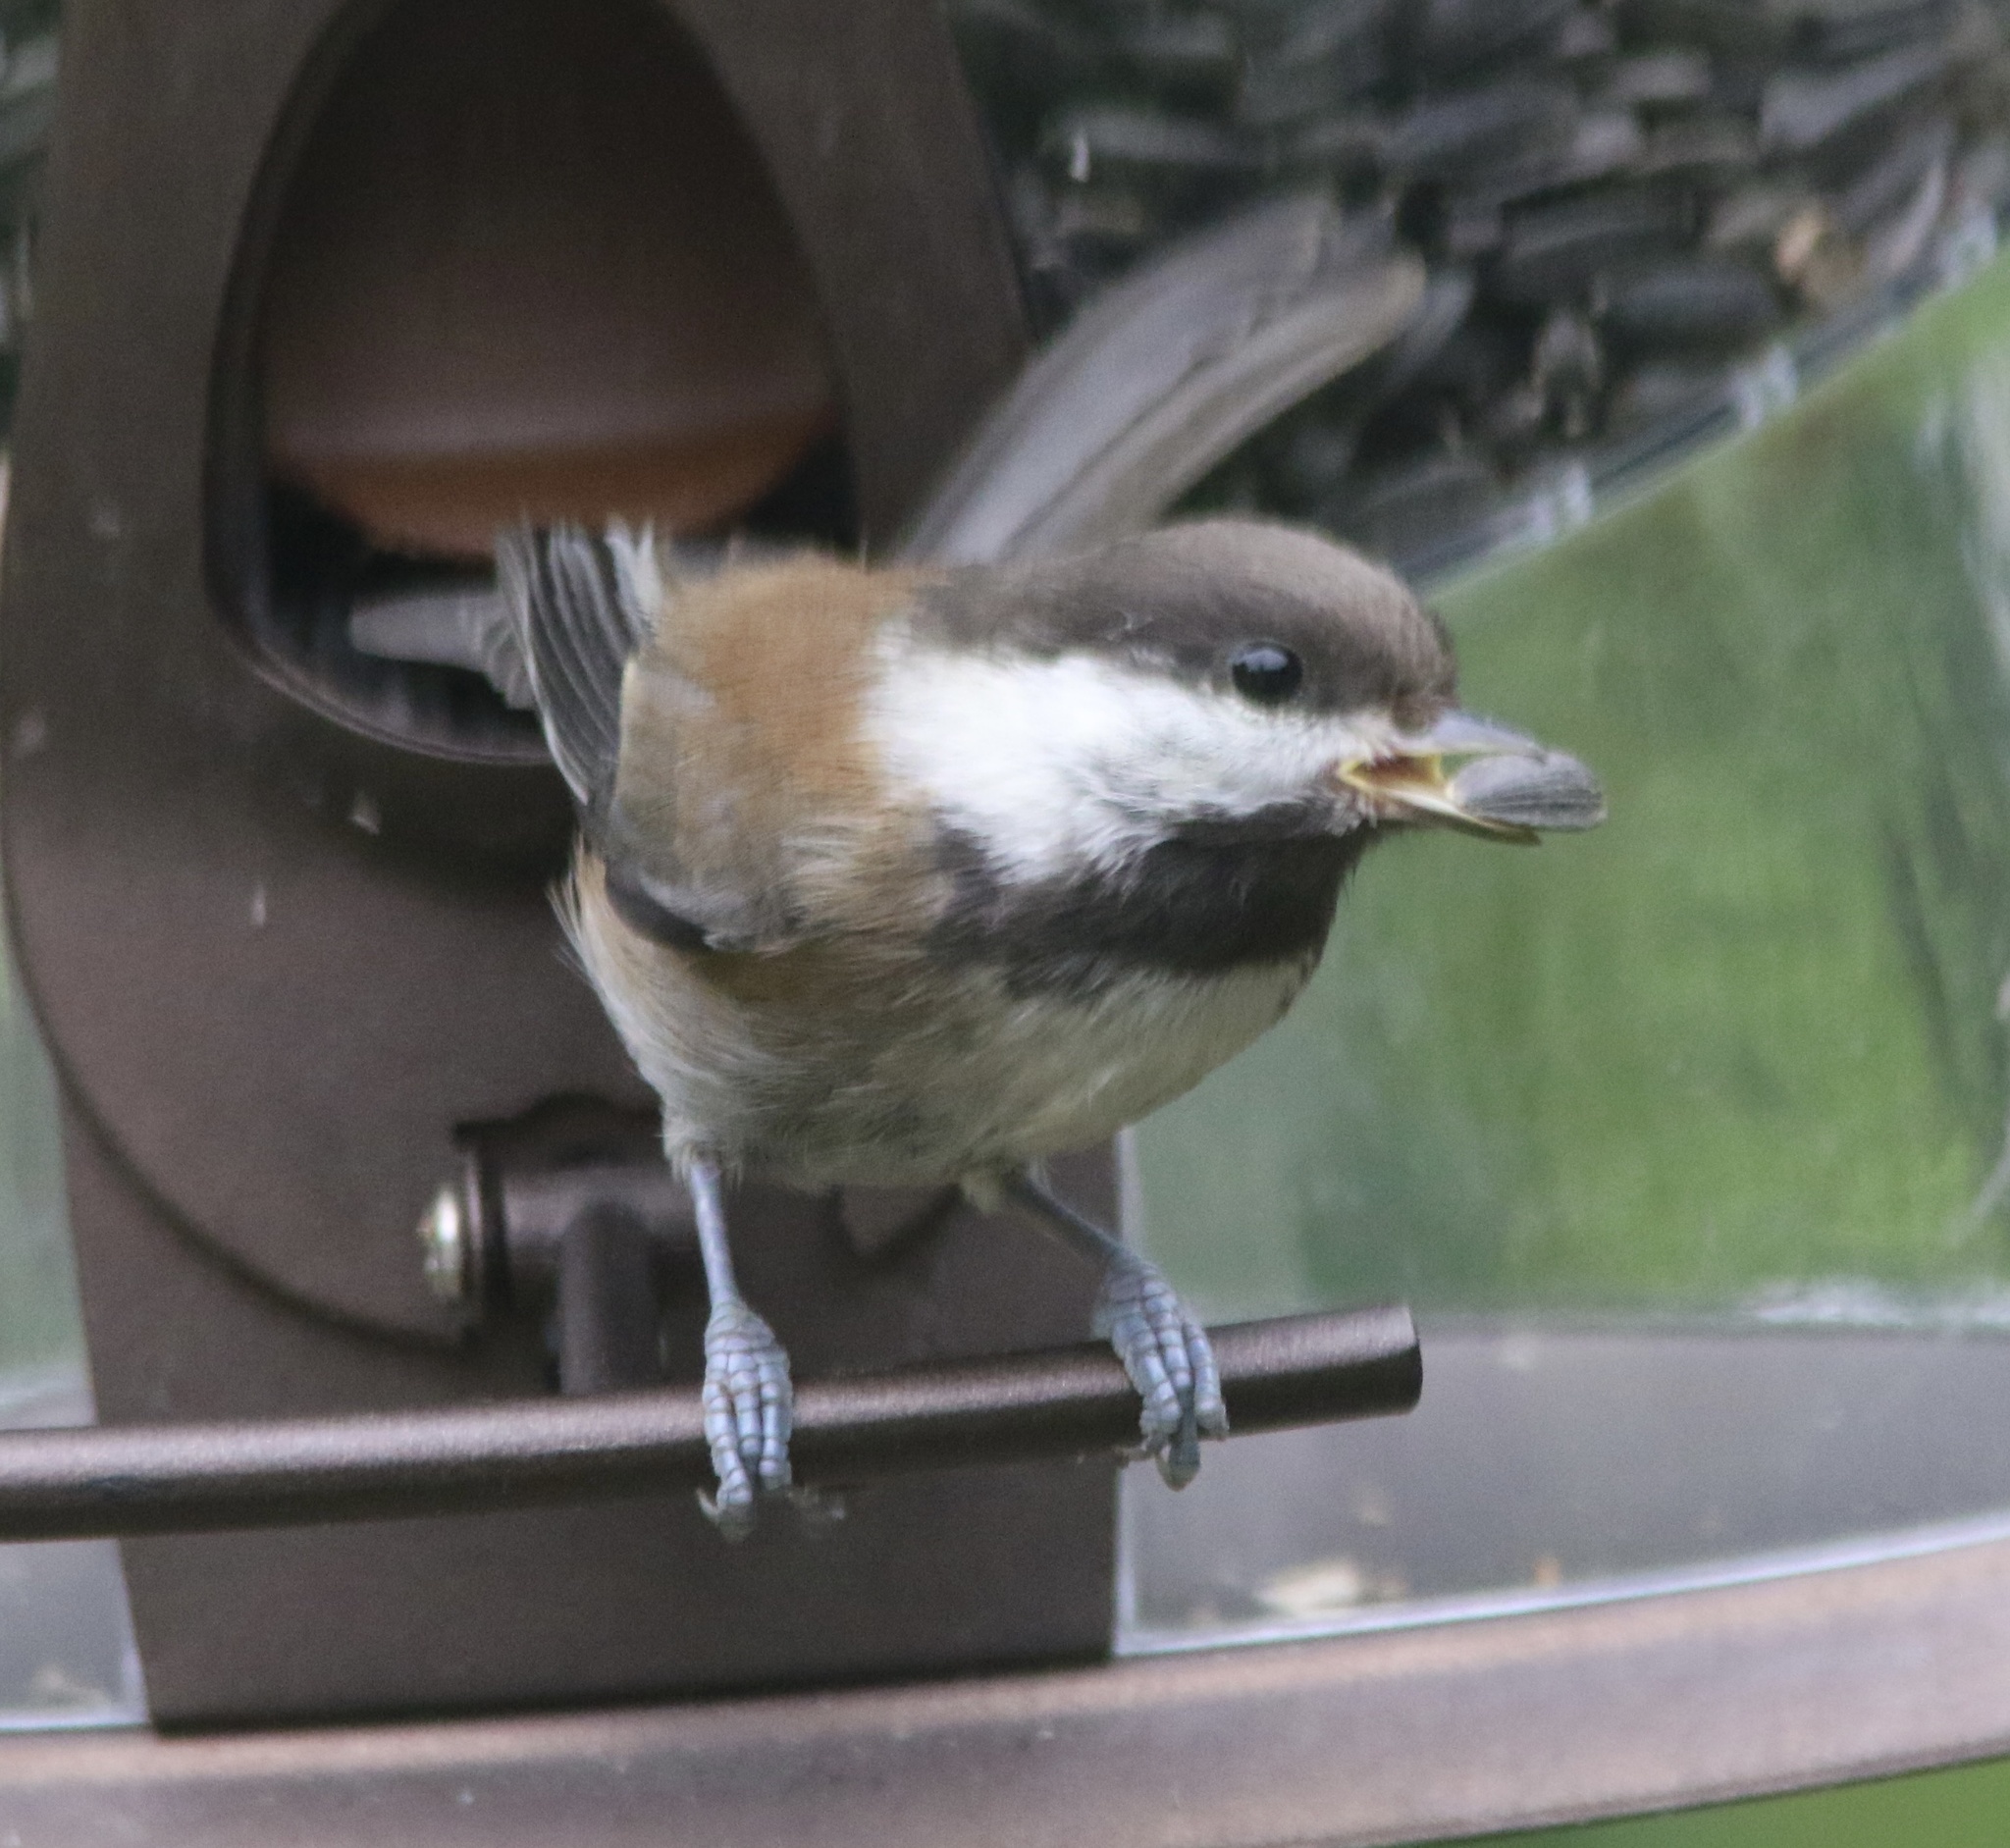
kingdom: Animalia
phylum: Chordata
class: Aves
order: Passeriformes
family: Paridae
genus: Poecile
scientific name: Poecile rufescens
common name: Chestnut-backed chickadee
